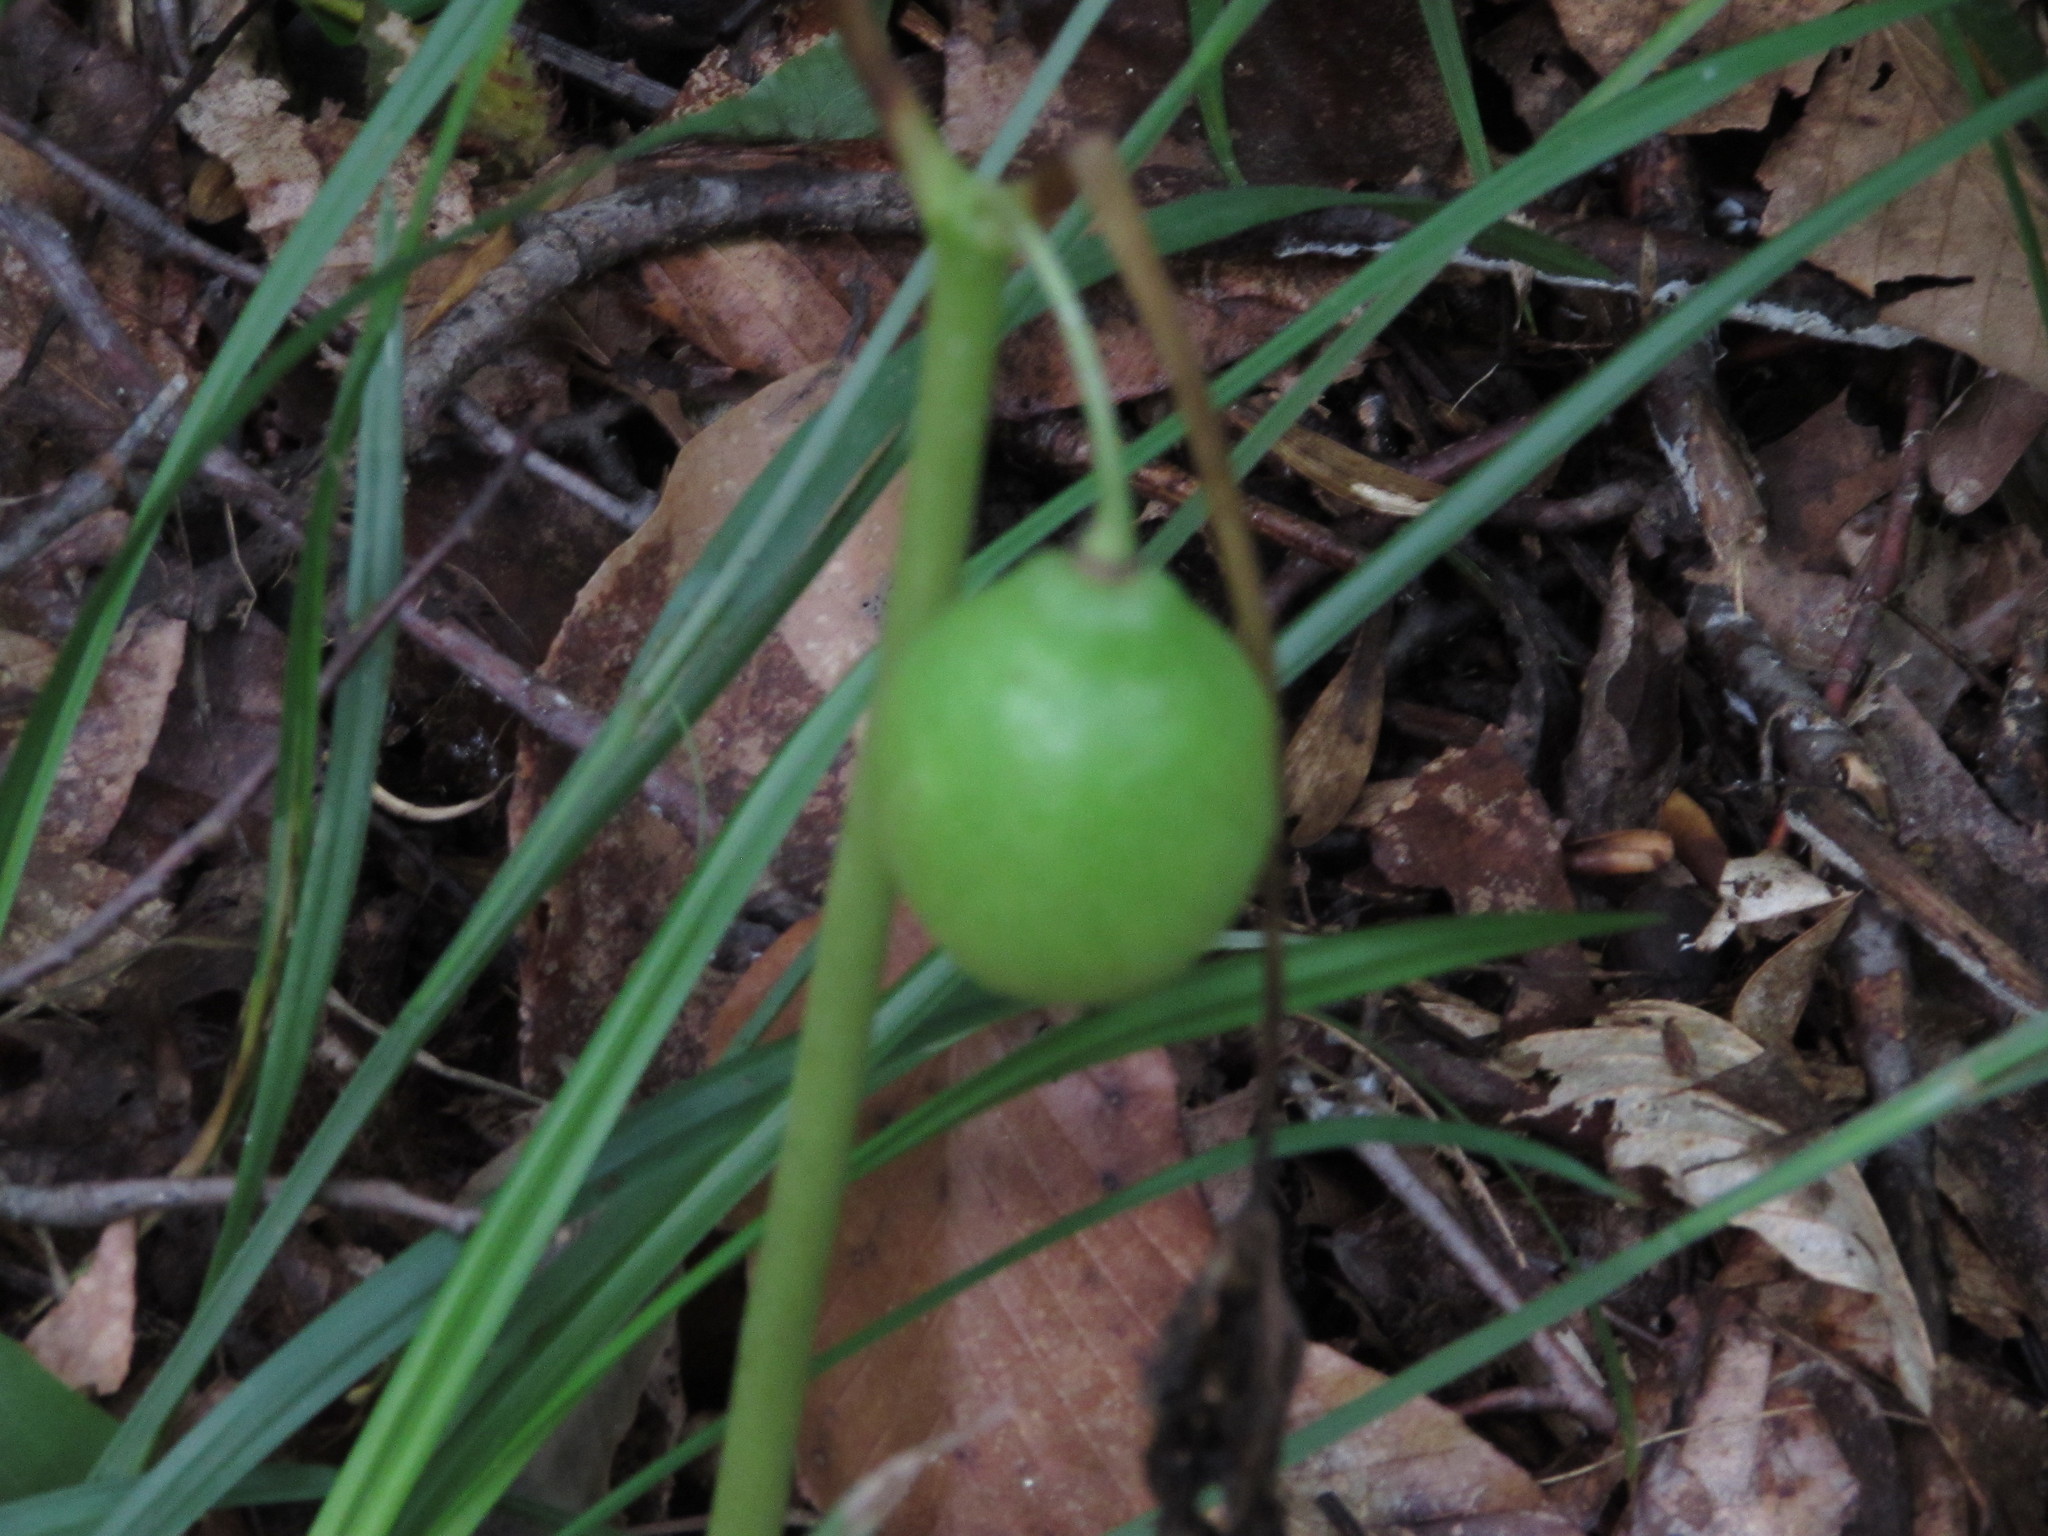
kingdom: Plantae
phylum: Tracheophyta
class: Magnoliopsida
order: Ranunculales
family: Berberidaceae
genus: Podophyllum
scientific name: Podophyllum peltatum
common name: Wild mandrake
